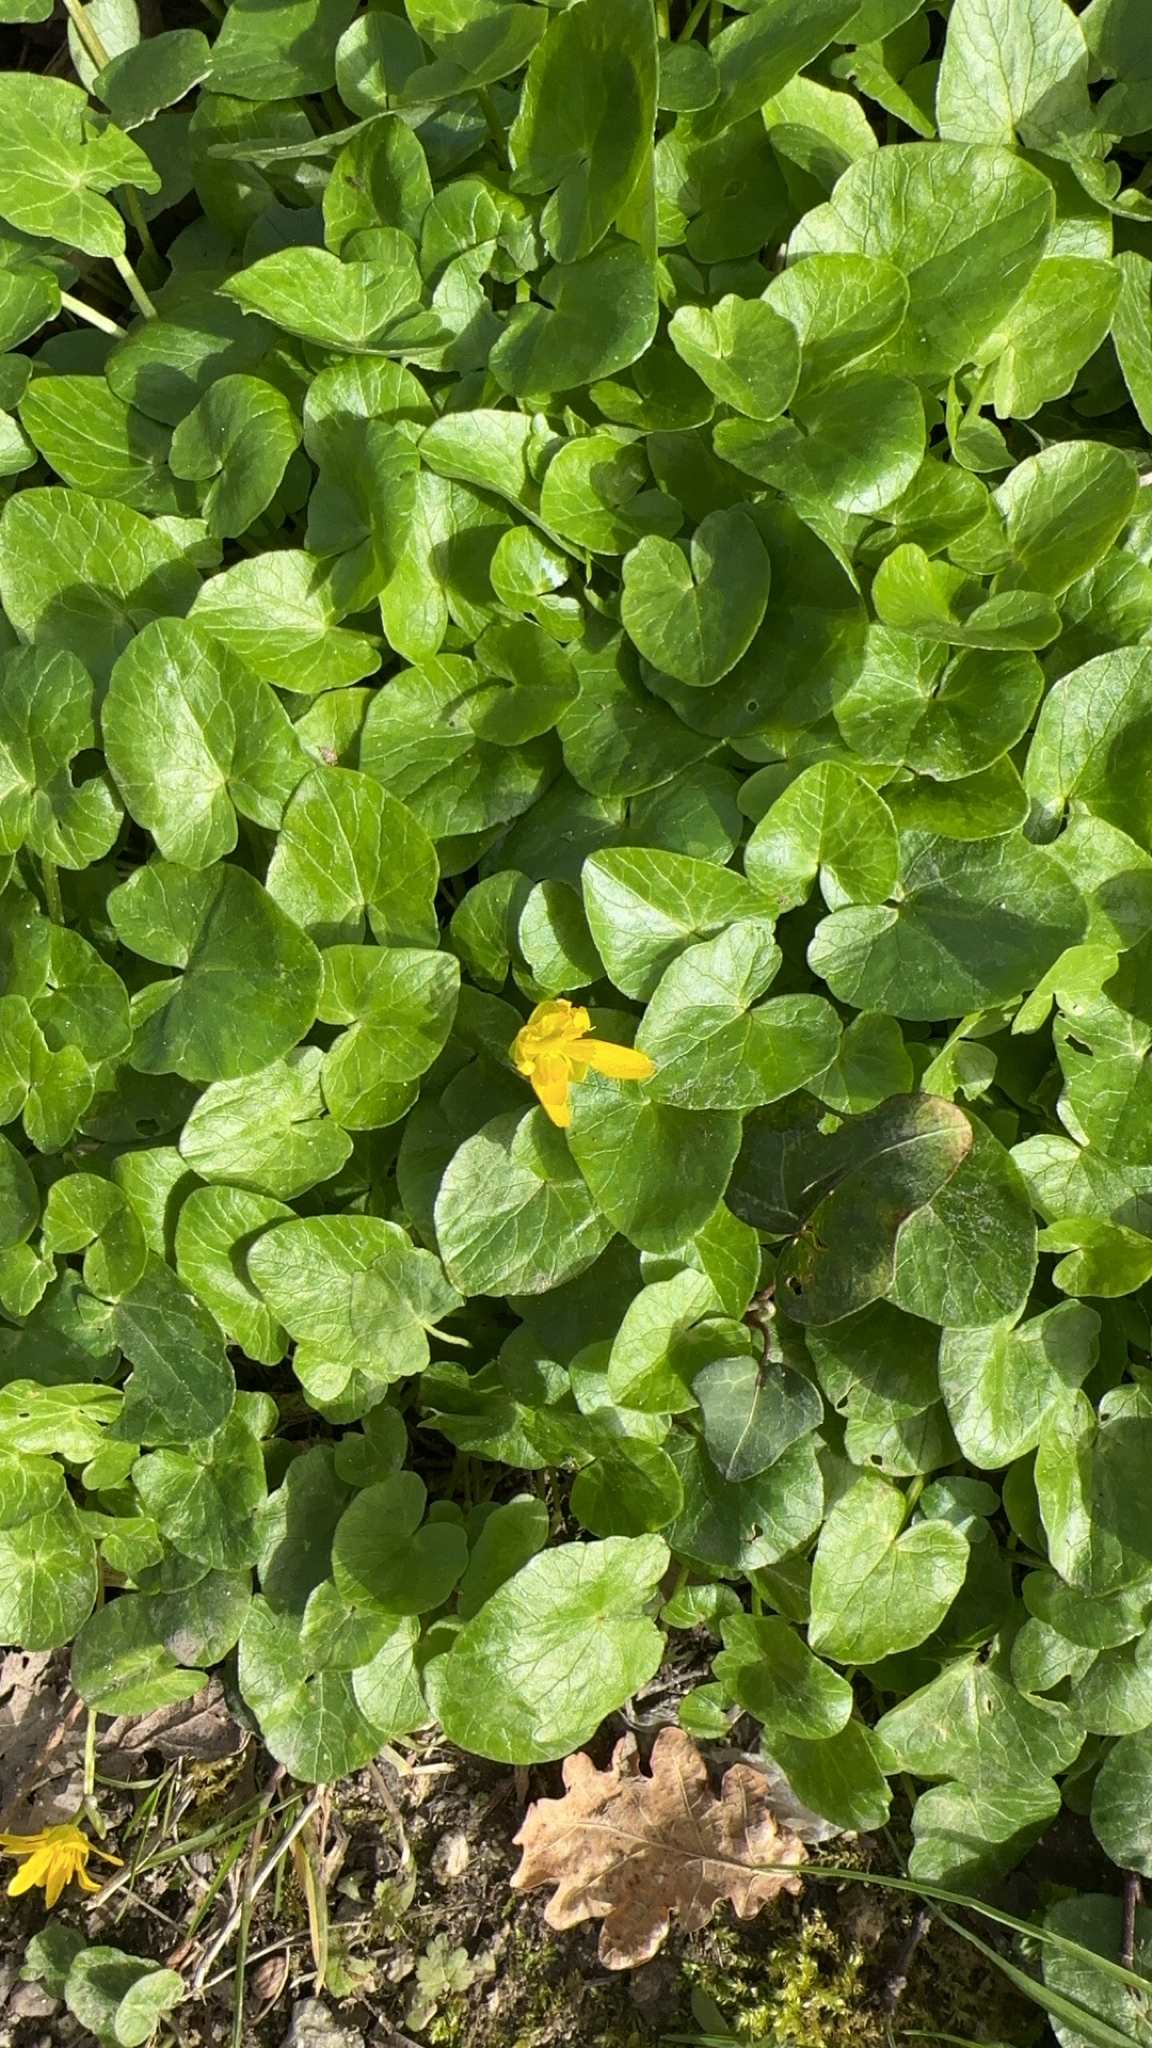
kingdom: Plantae
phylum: Tracheophyta
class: Magnoliopsida
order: Ranunculales
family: Ranunculaceae
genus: Ficaria
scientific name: Ficaria verna
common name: Lesser celandine
